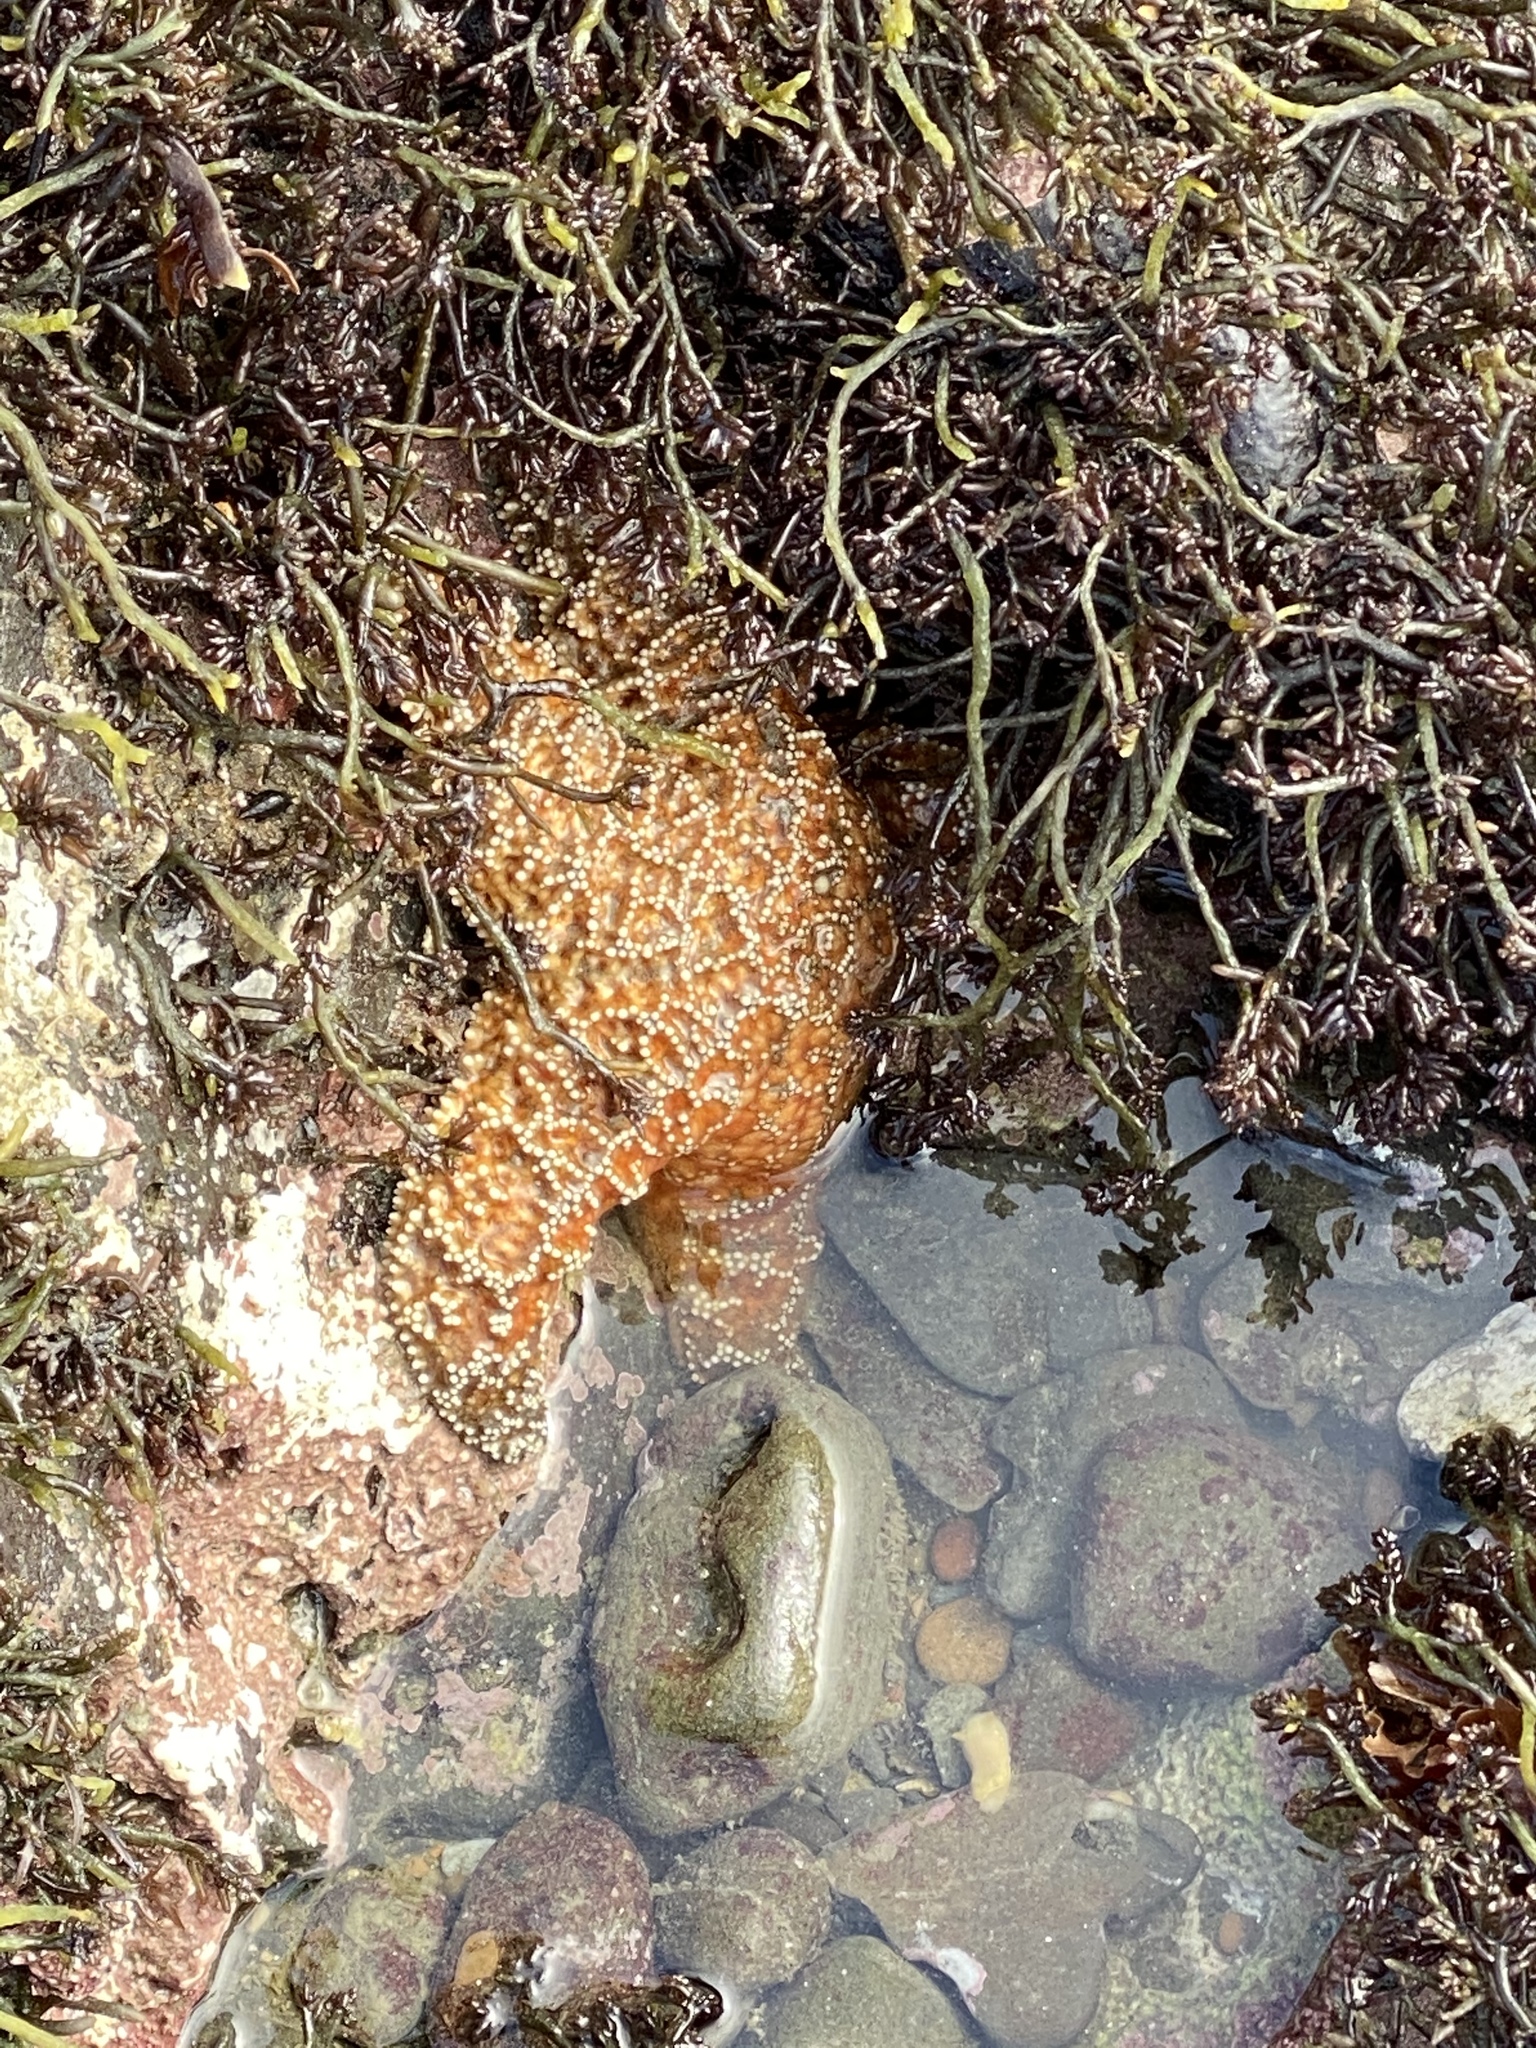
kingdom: Animalia
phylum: Echinodermata
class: Asteroidea
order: Forcipulatida
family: Asteriidae
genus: Pisaster
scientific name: Pisaster ochraceus
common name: Ochre stars
